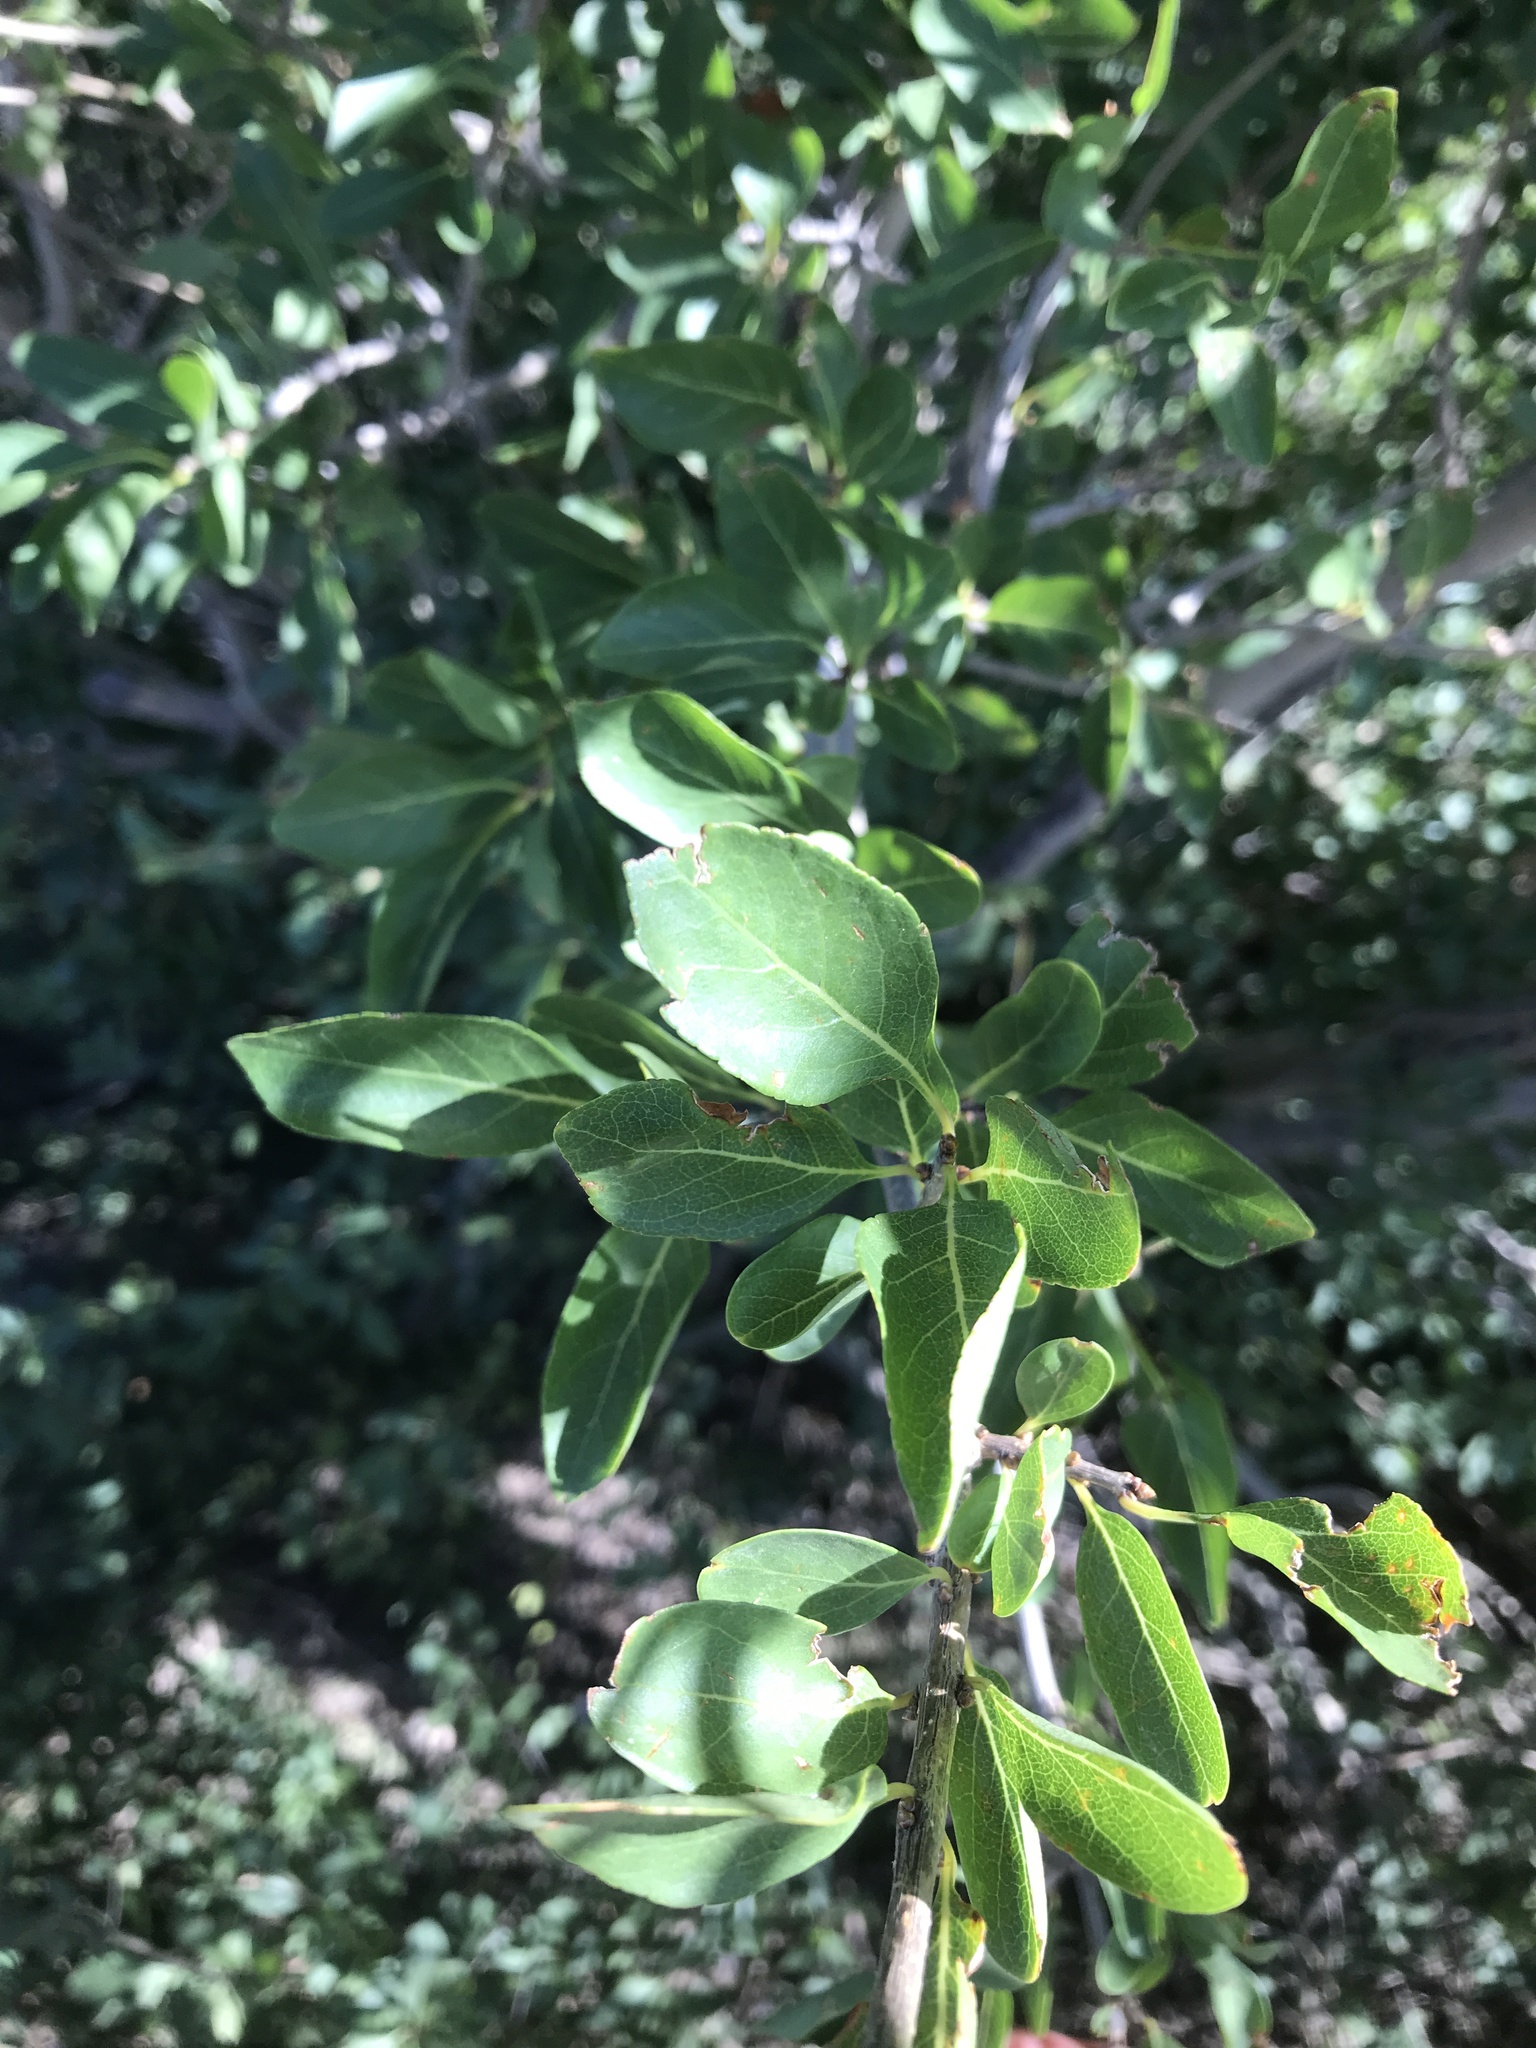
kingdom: Plantae
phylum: Tracheophyta
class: Magnoliopsida
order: Lamiales
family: Oleaceae
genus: Forestiera
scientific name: Forestiera pubescens
